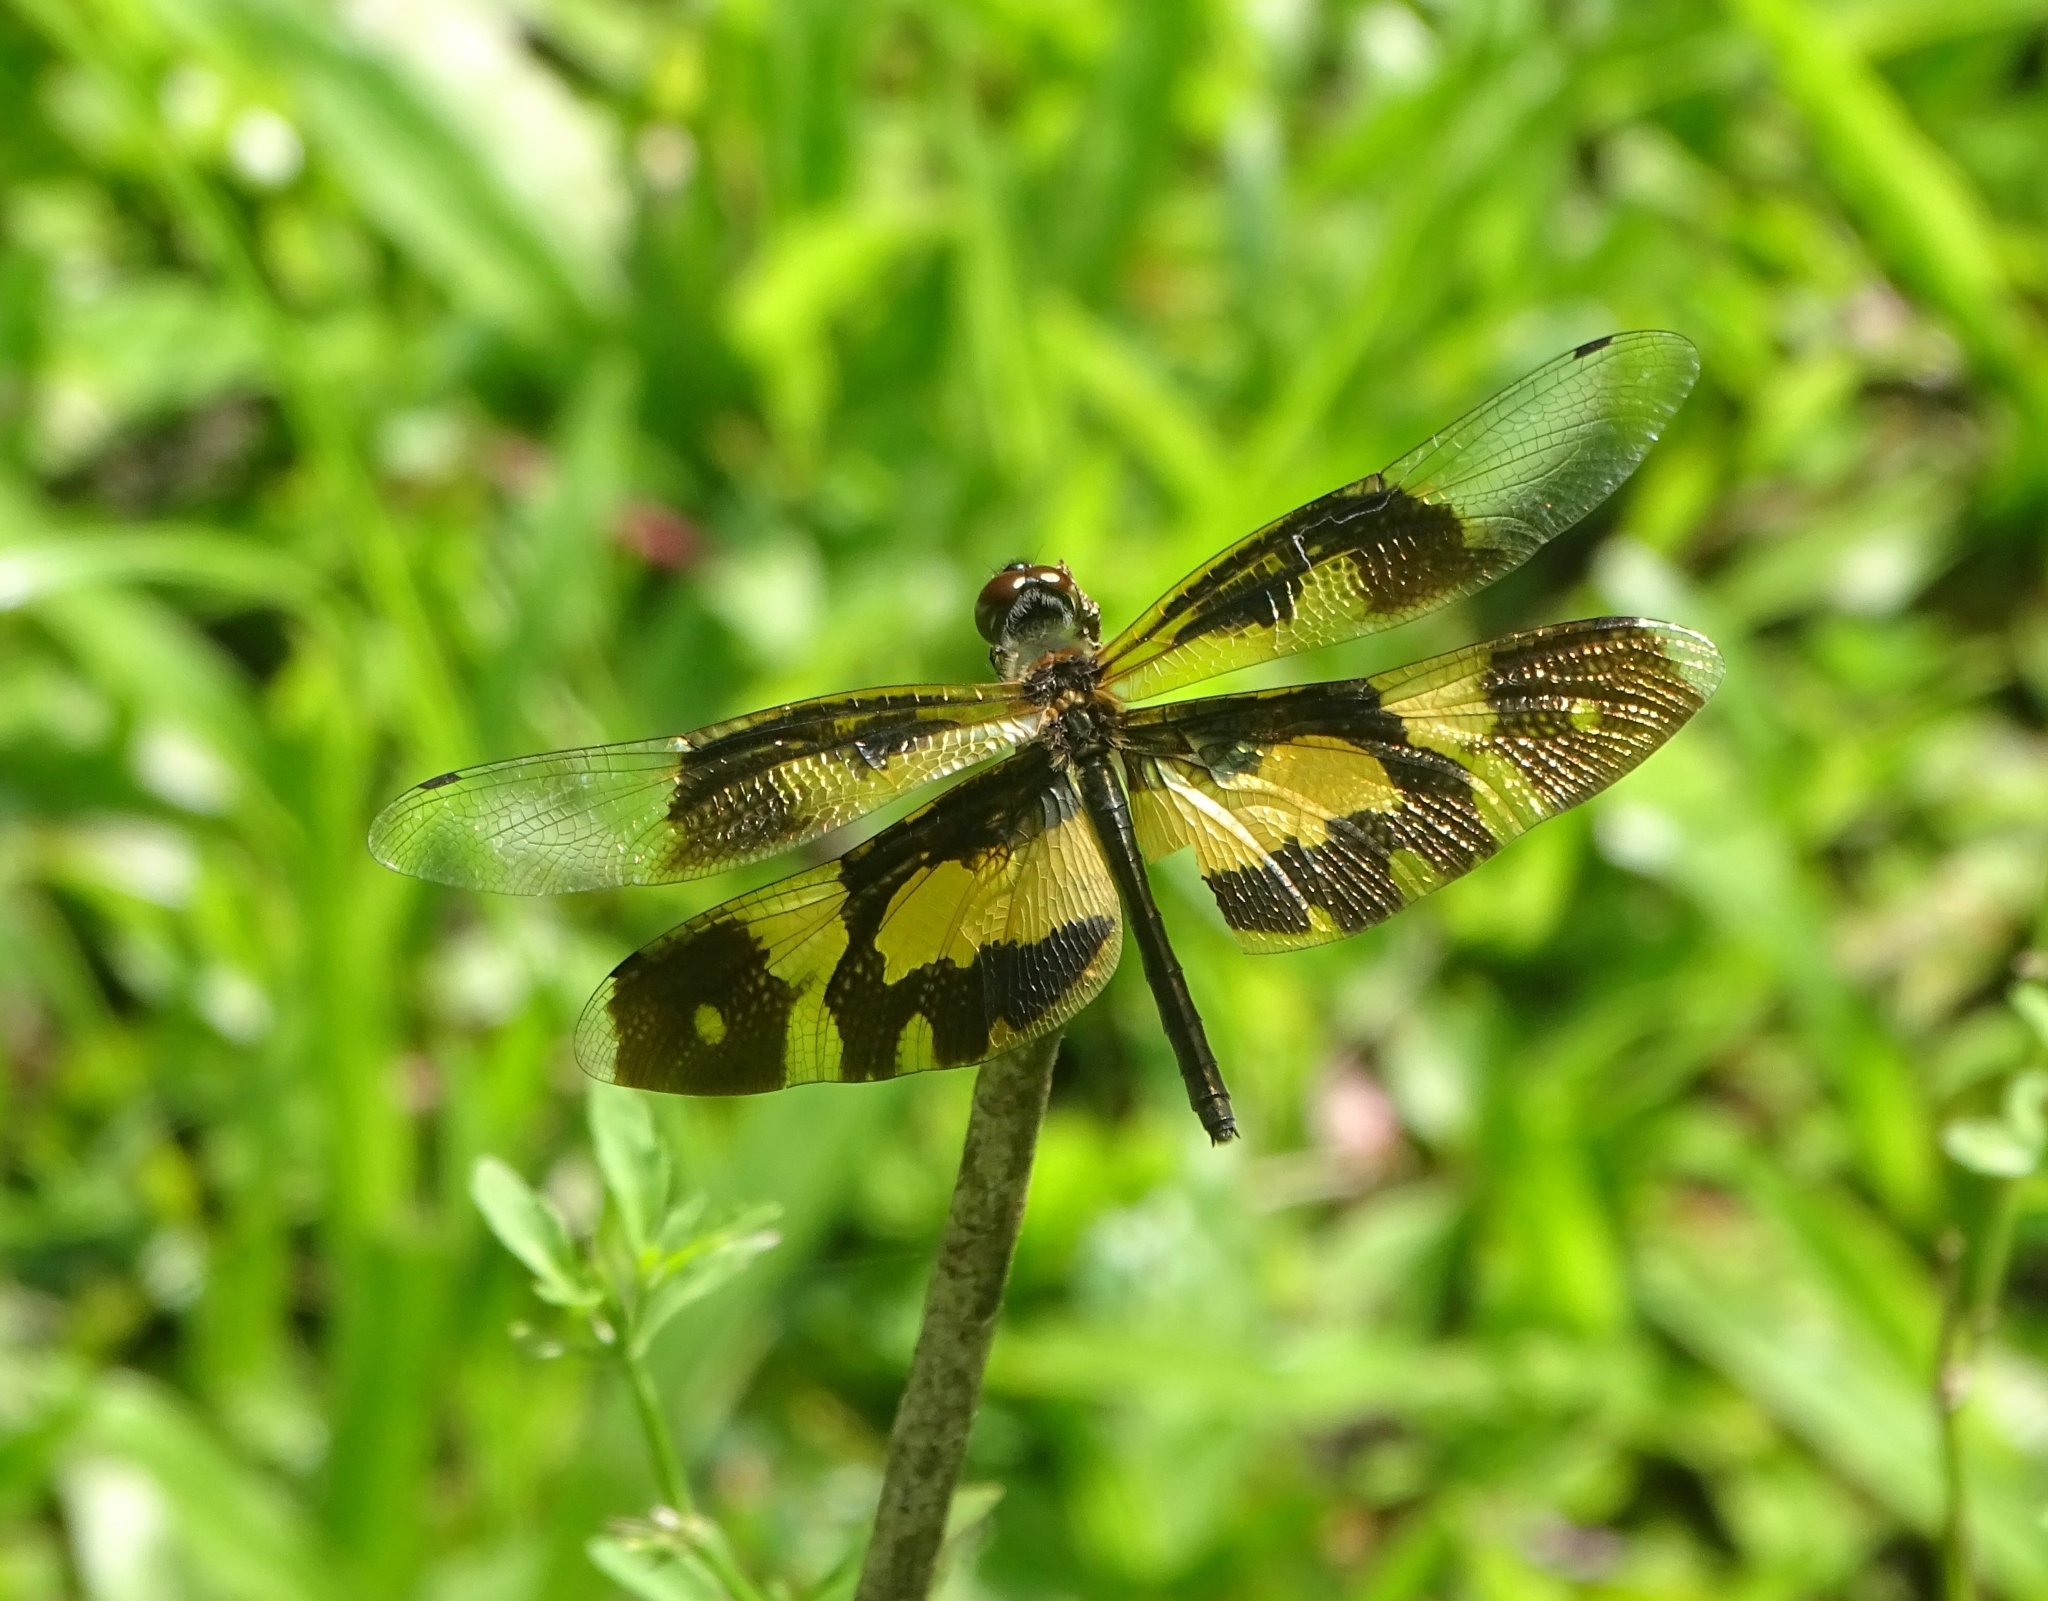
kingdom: Animalia
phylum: Arthropoda
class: Insecta
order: Odonata
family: Libellulidae
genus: Rhyothemis
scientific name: Rhyothemis variegata
